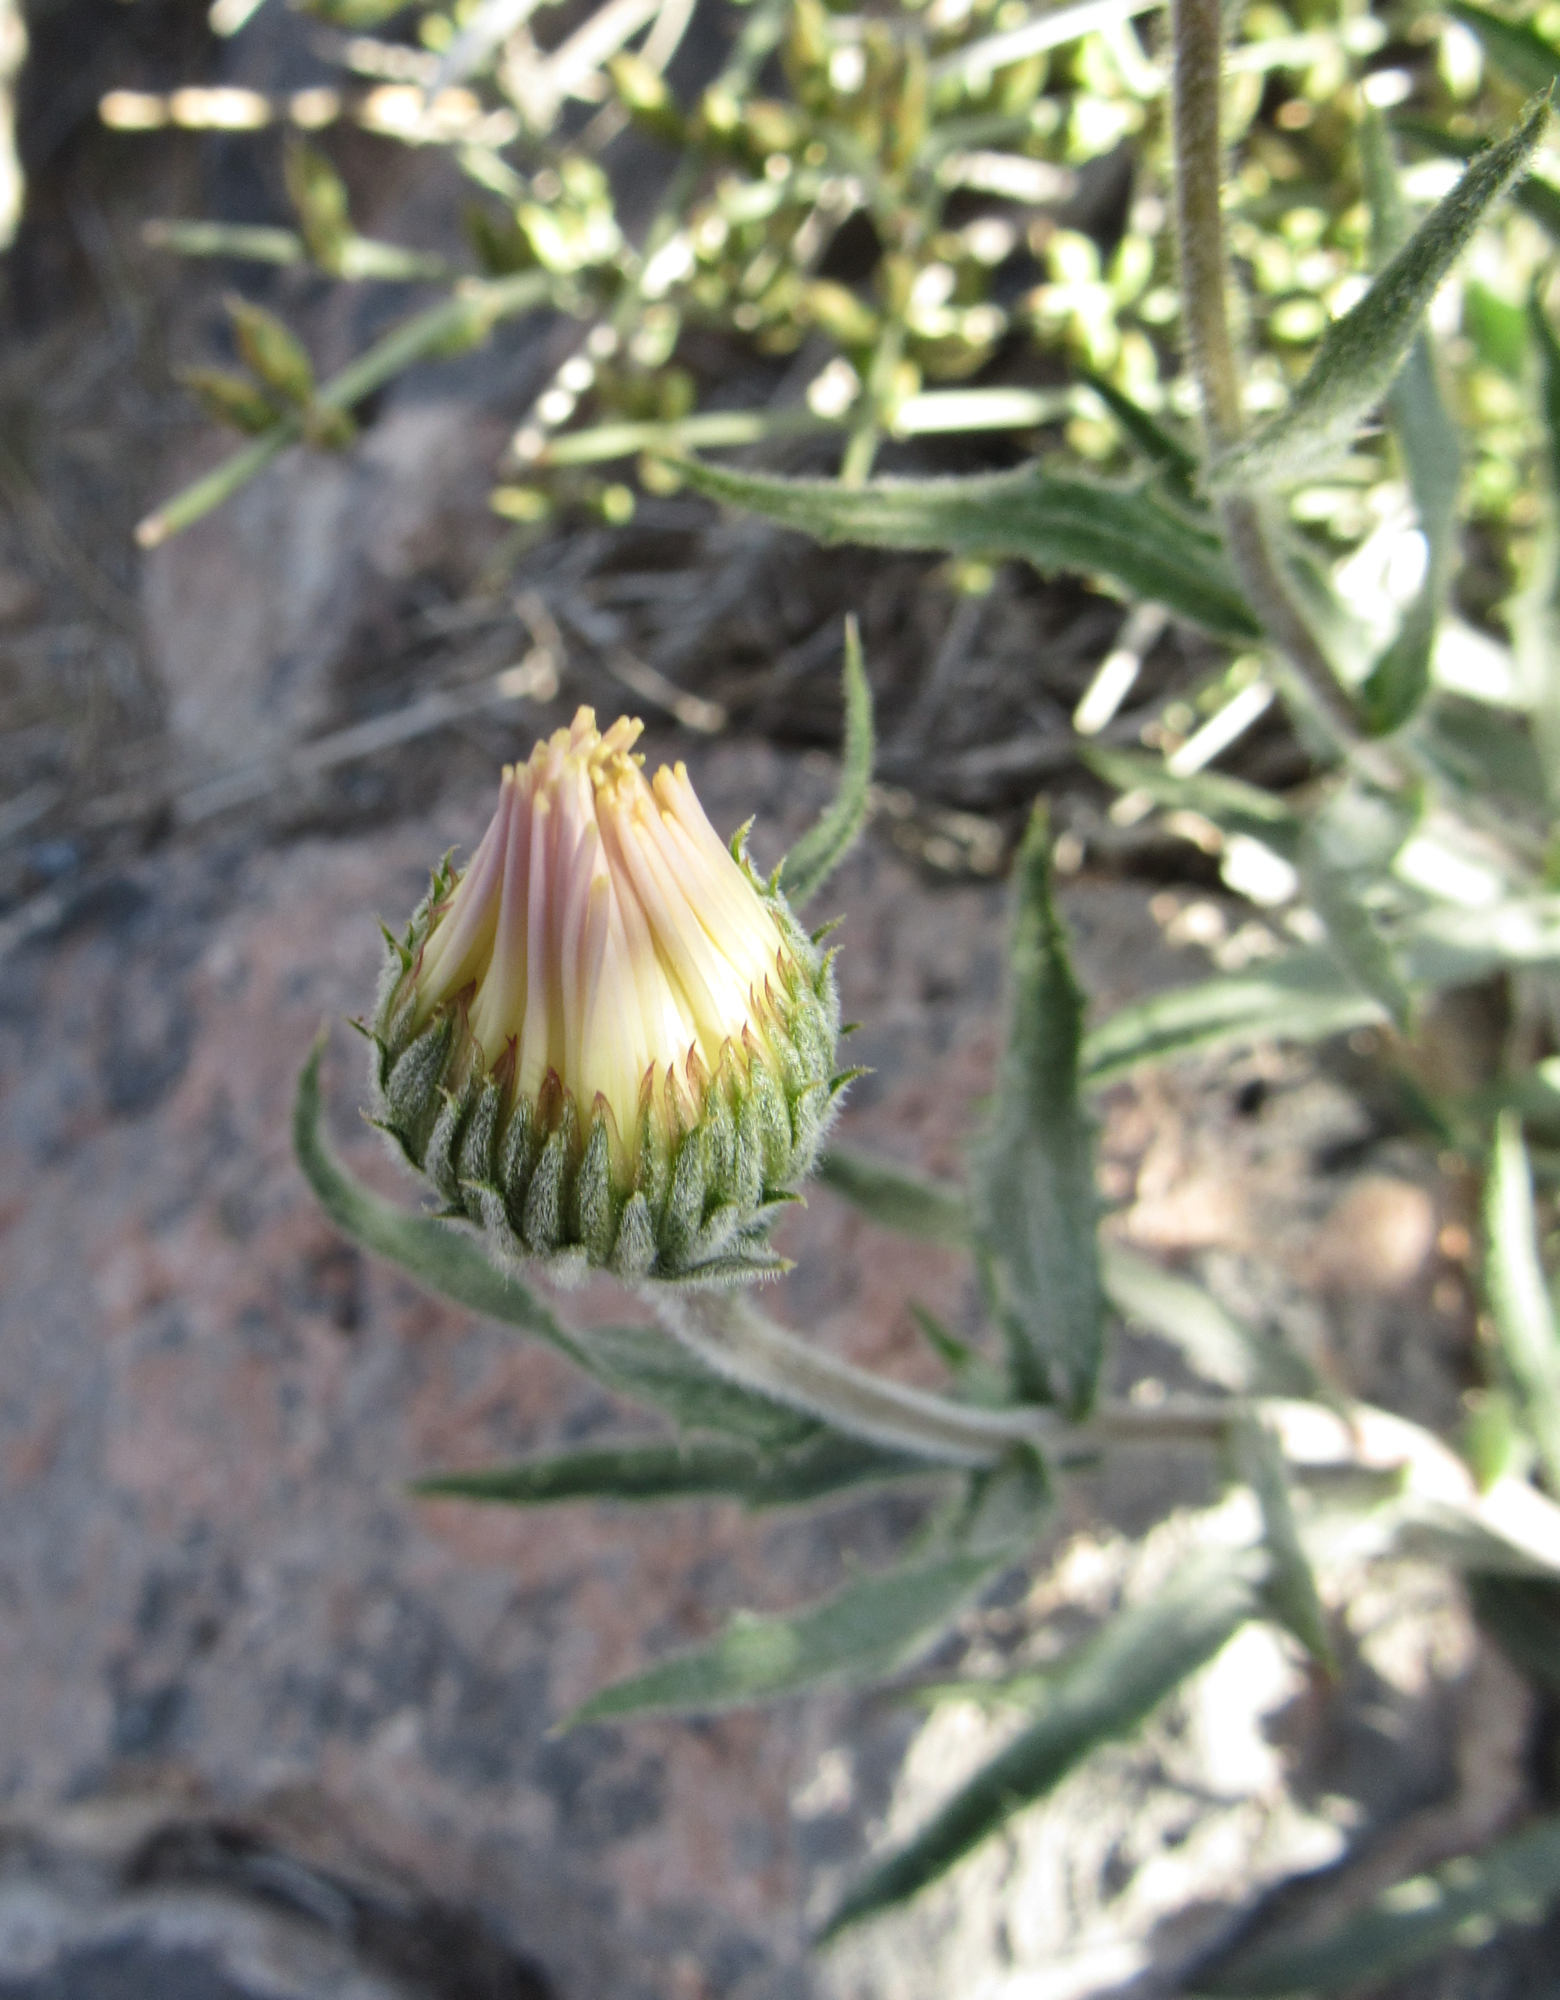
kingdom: Plantae
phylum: Tracheophyta
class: Magnoliopsida
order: Asterales
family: Asteraceae
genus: Xylorhiza
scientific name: Xylorhiza tortifolia
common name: Hurt-leaf woody-aster
